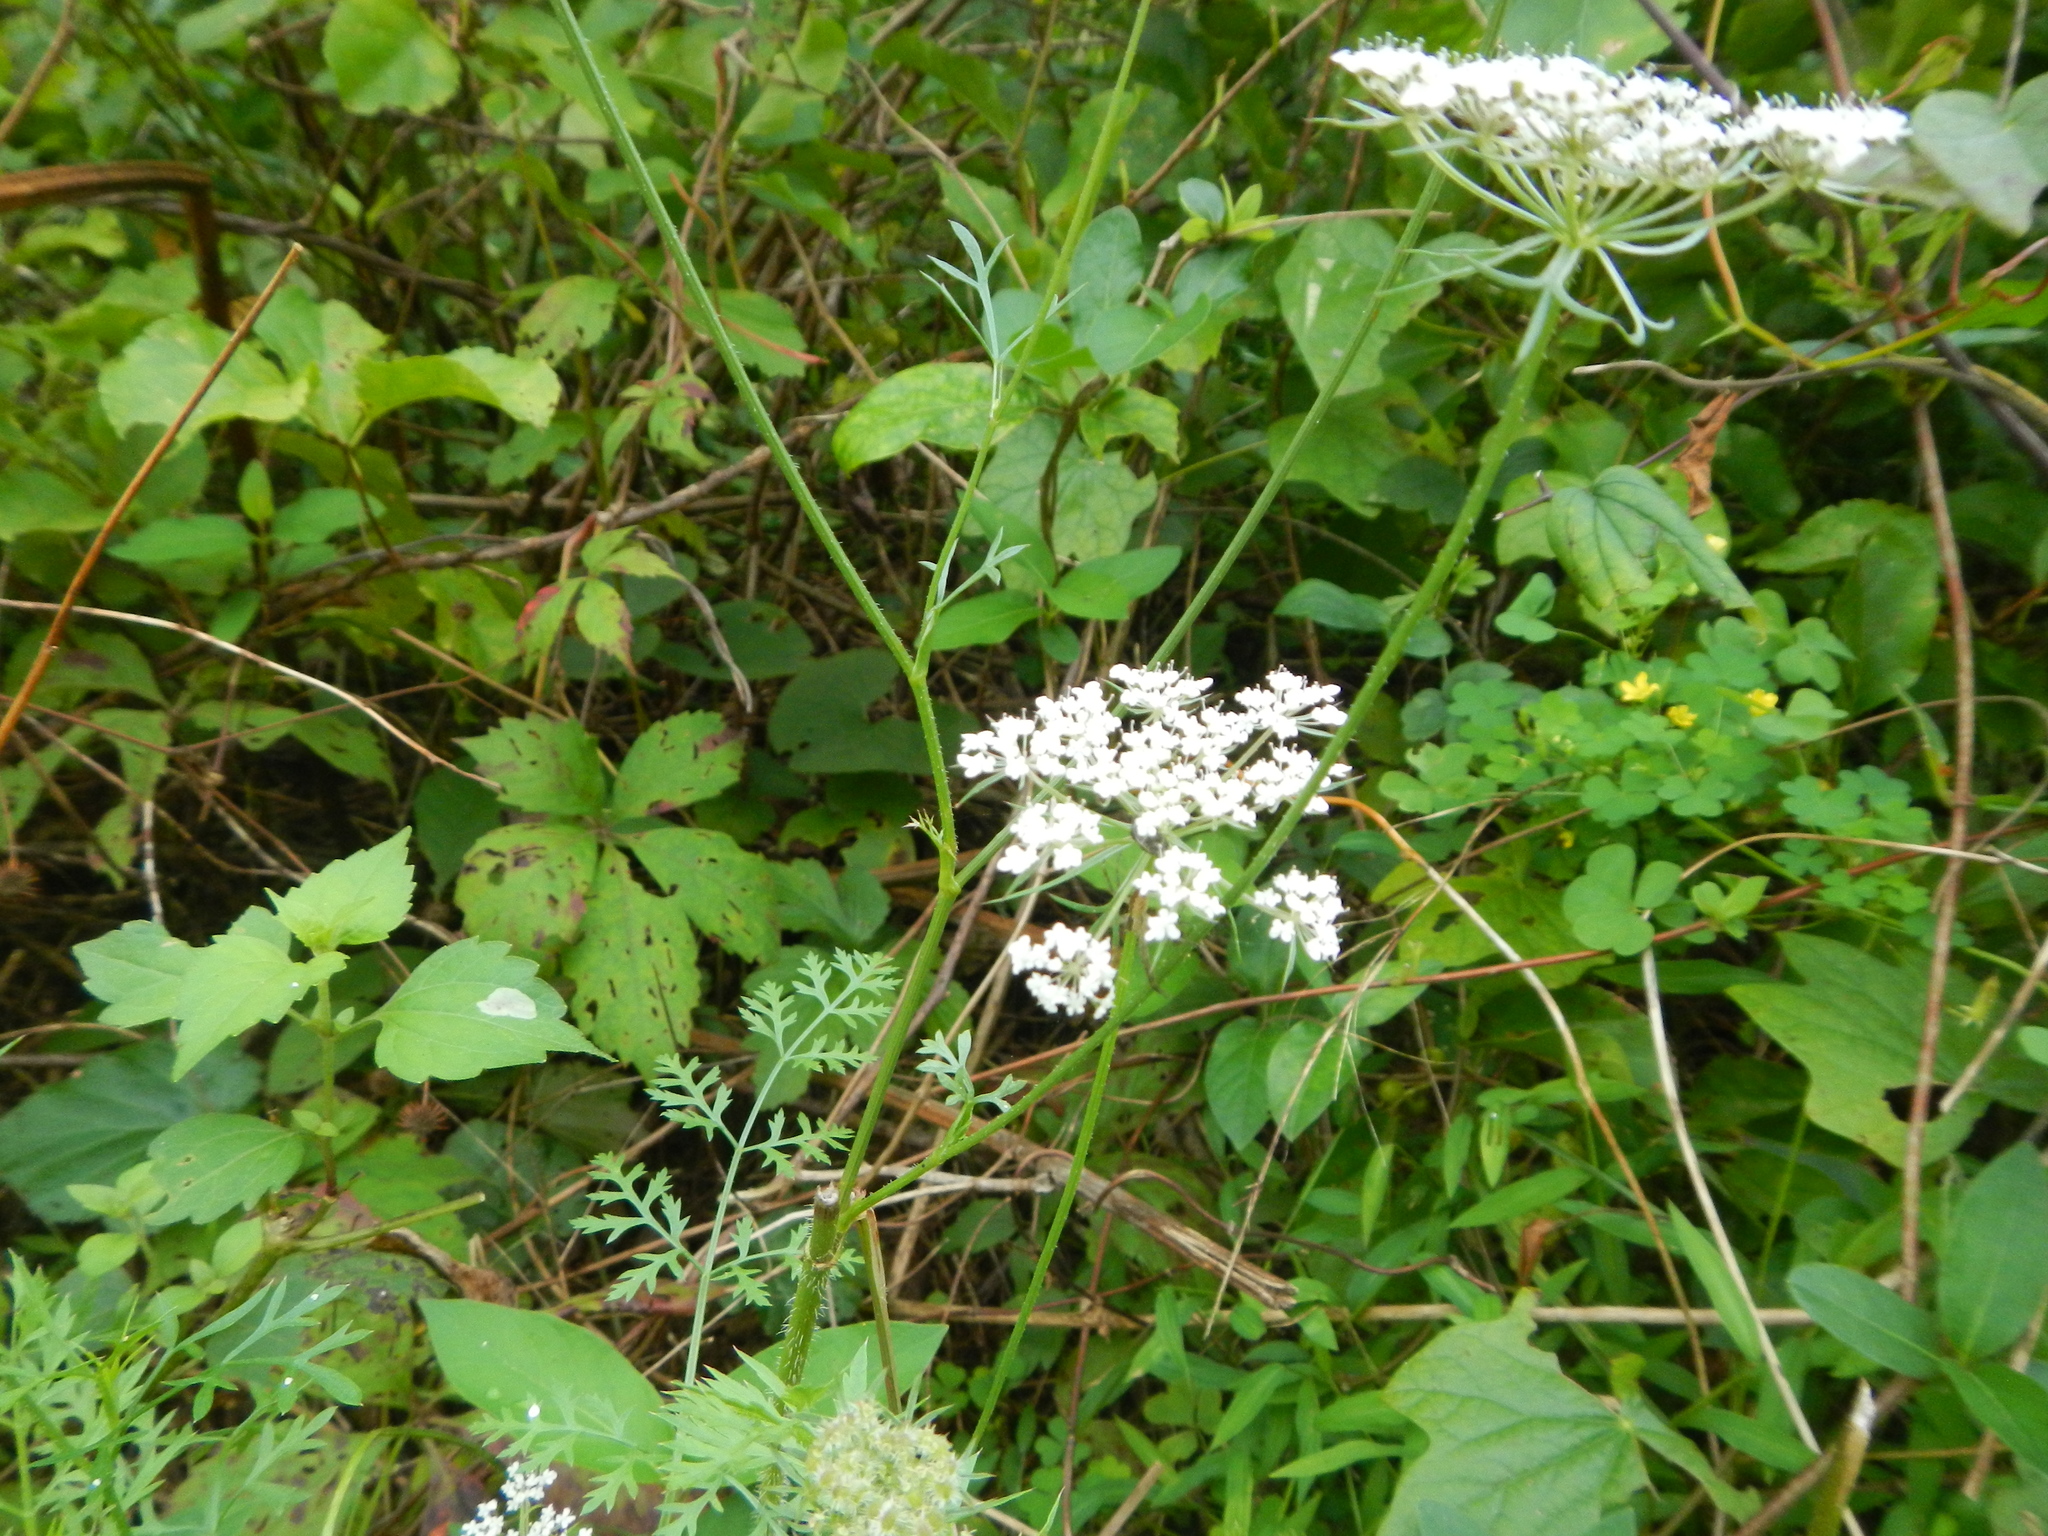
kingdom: Plantae
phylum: Tracheophyta
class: Magnoliopsida
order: Apiales
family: Apiaceae
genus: Daucus
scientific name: Daucus carota
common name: Wild carrot
